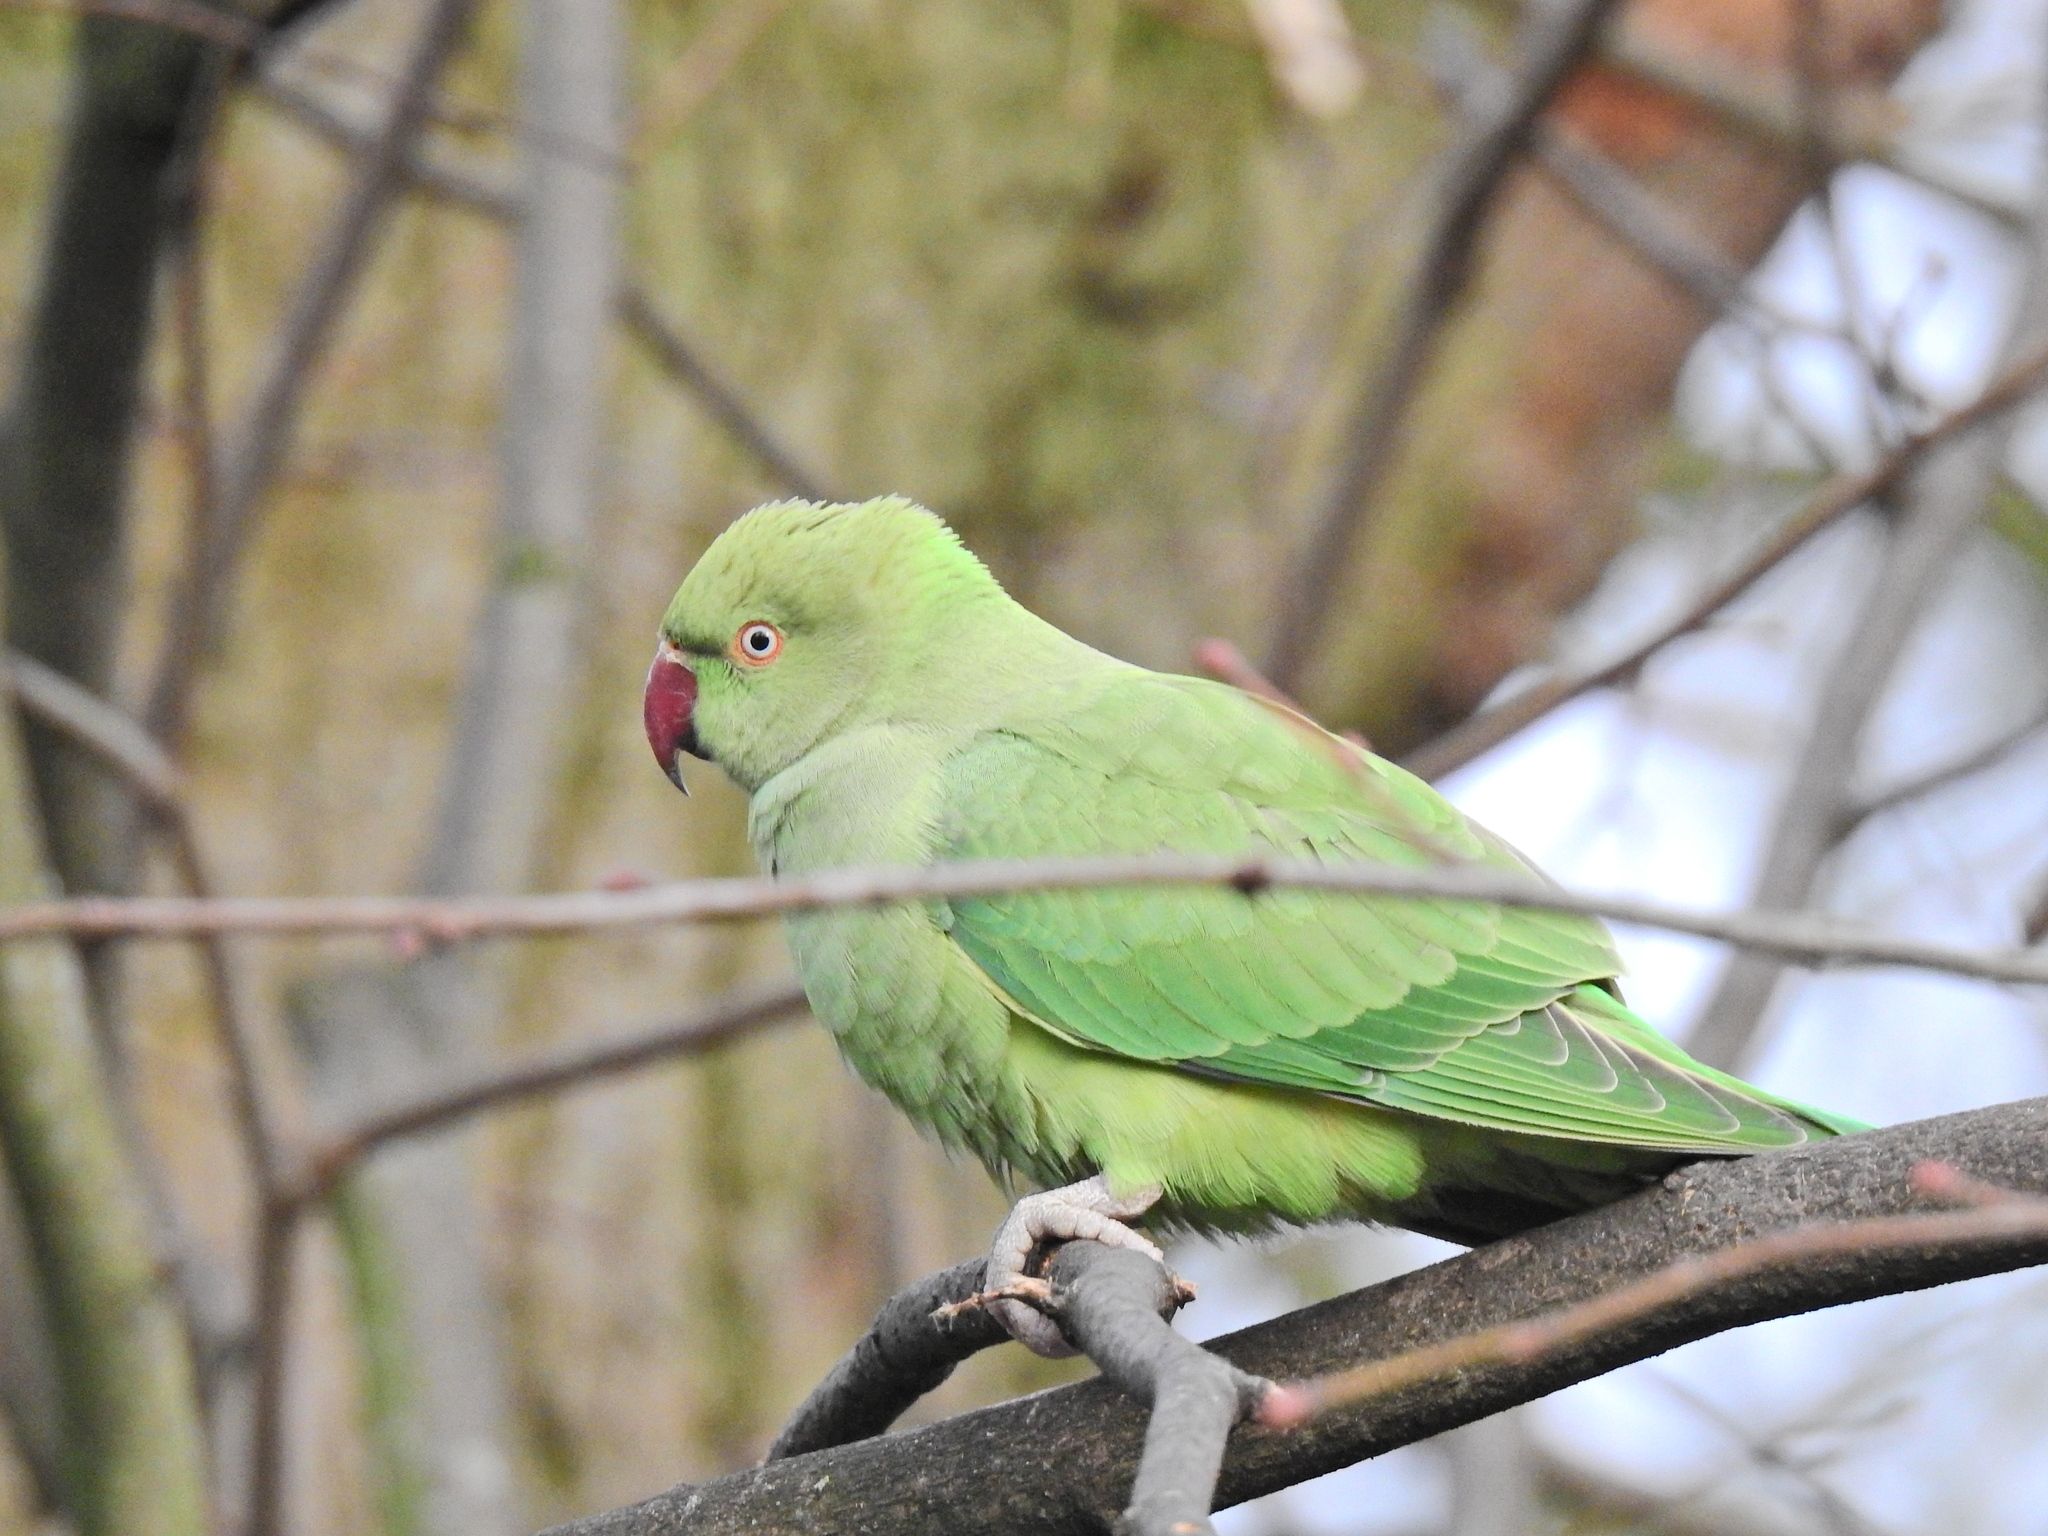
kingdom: Animalia
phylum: Chordata
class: Aves
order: Psittaciformes
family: Psittacidae
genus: Psittacula
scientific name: Psittacula krameri
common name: Rose-ringed parakeet
